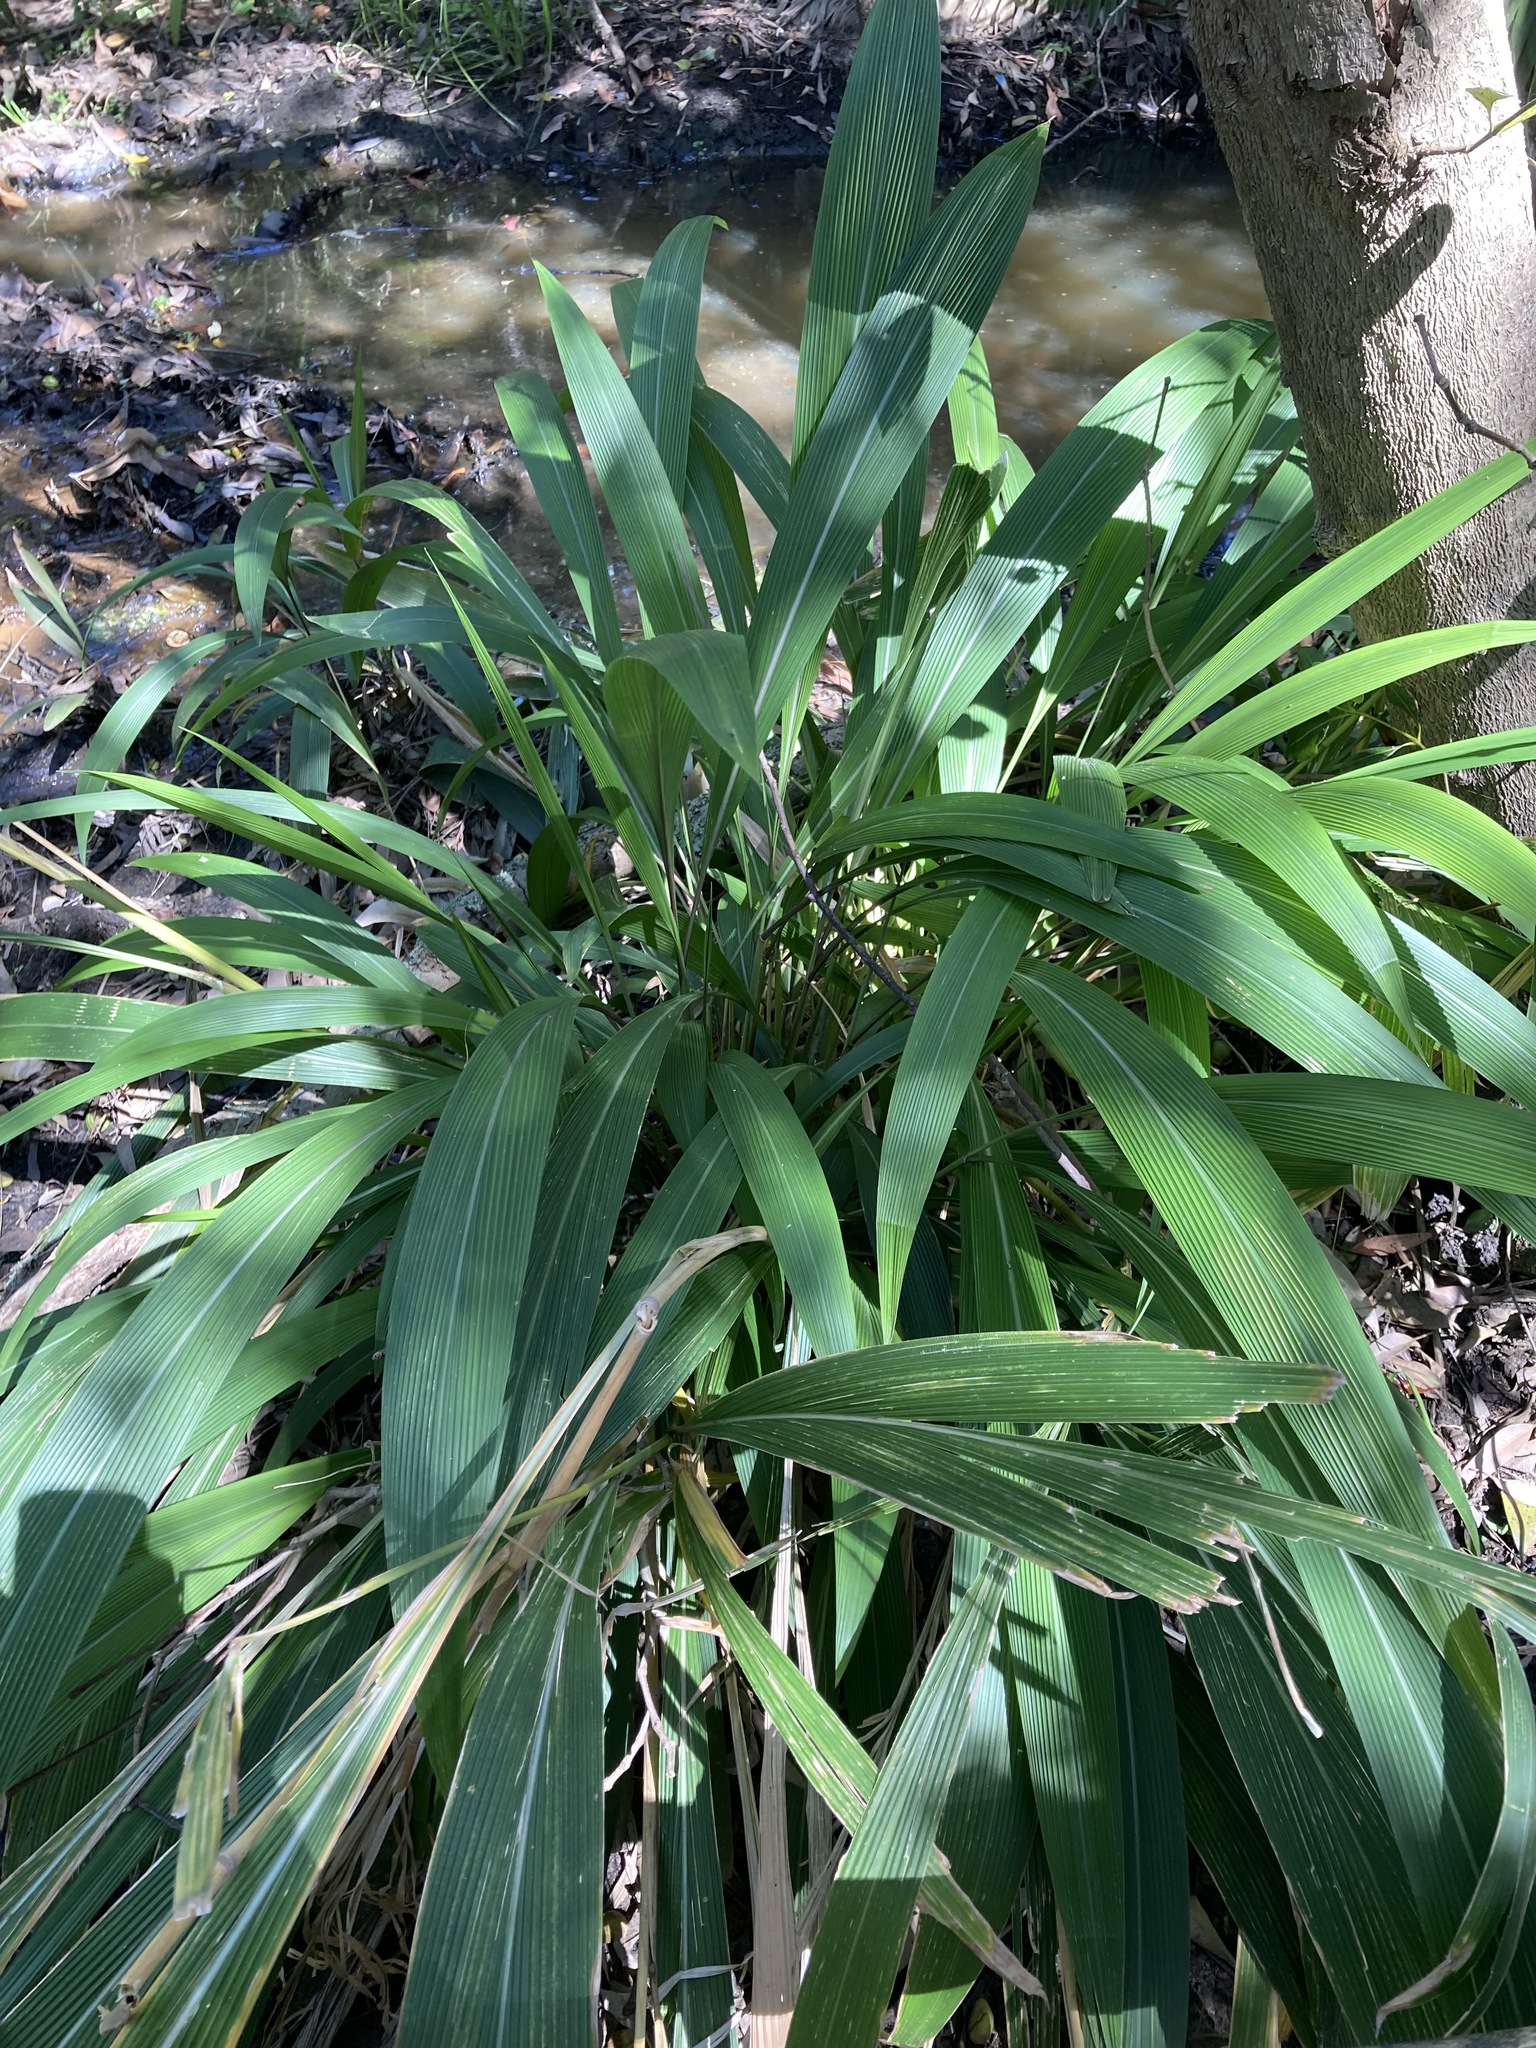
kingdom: Plantae
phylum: Tracheophyta
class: Liliopsida
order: Poales
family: Poaceae
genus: Setaria
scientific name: Setaria palmifolia
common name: Broadleaved bristlegrass
